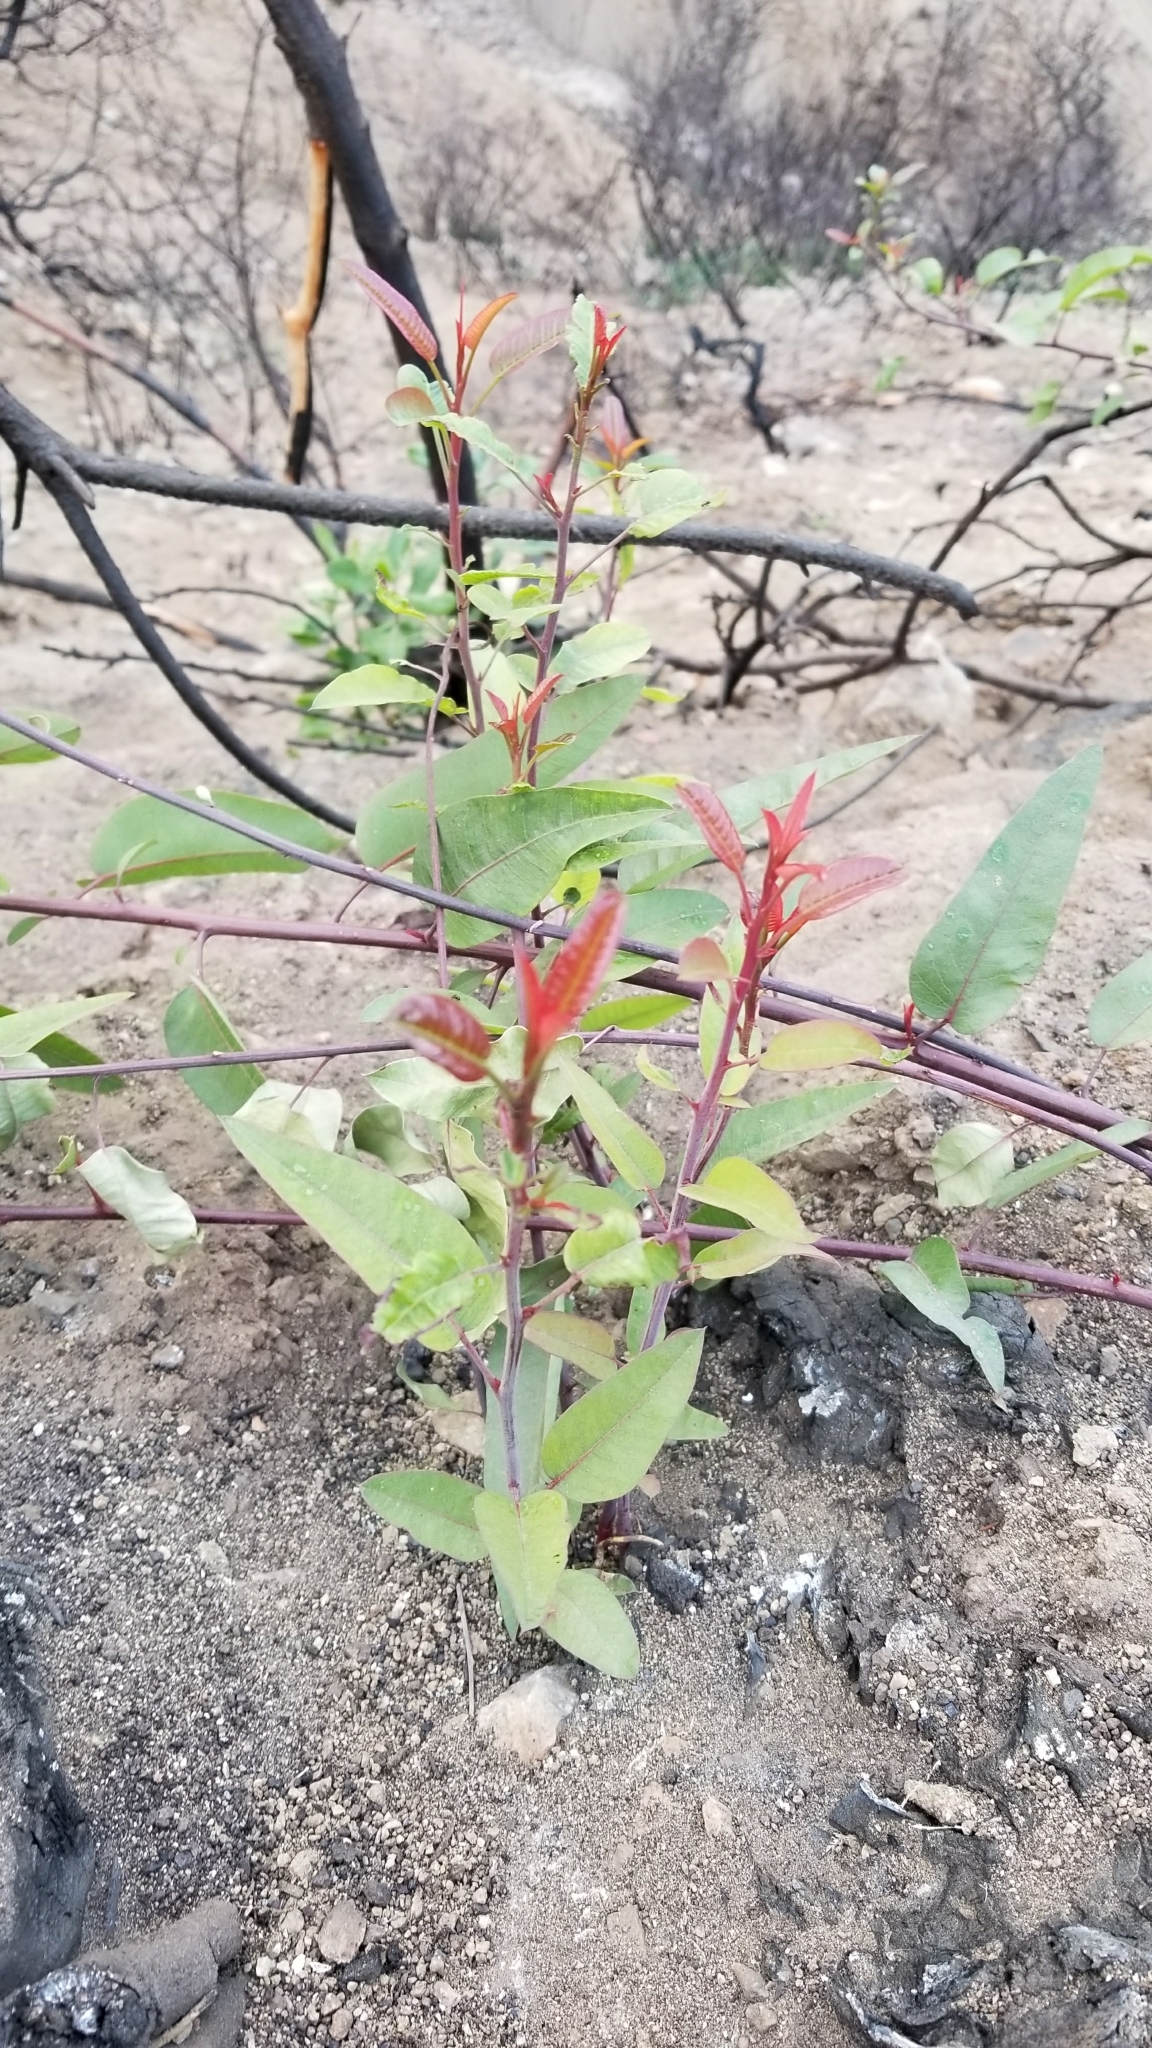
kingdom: Plantae
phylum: Tracheophyta
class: Magnoliopsida
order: Sapindales
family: Anacardiaceae
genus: Malosma
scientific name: Malosma laurina
